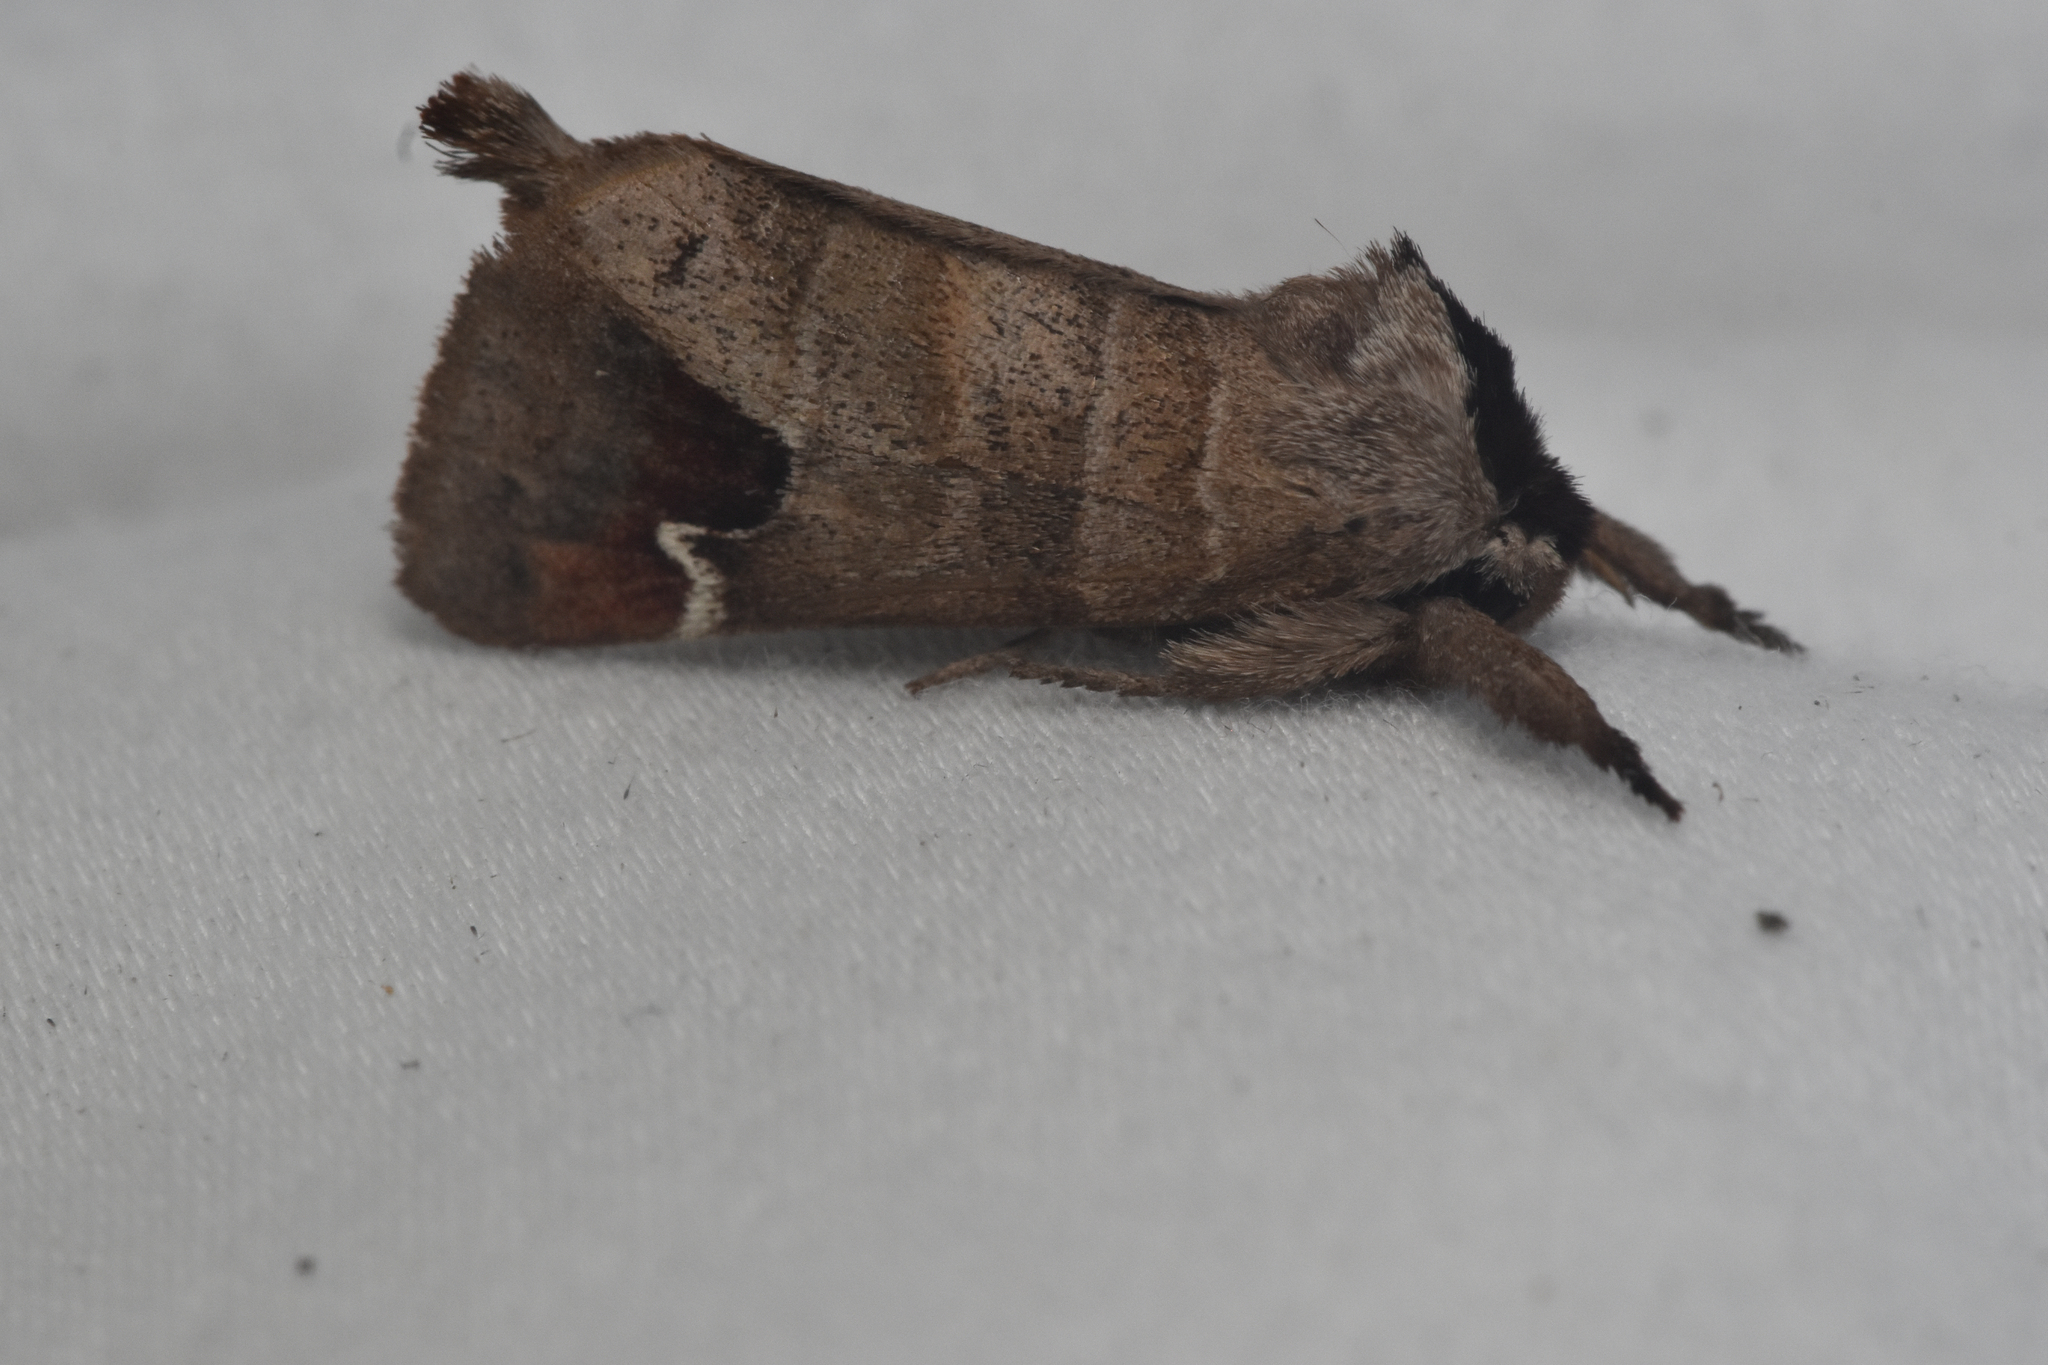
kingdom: Animalia
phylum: Arthropoda
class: Insecta
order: Lepidoptera
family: Notodontidae
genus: Clostera
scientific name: Clostera albosigma
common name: Sigmoid prominent
